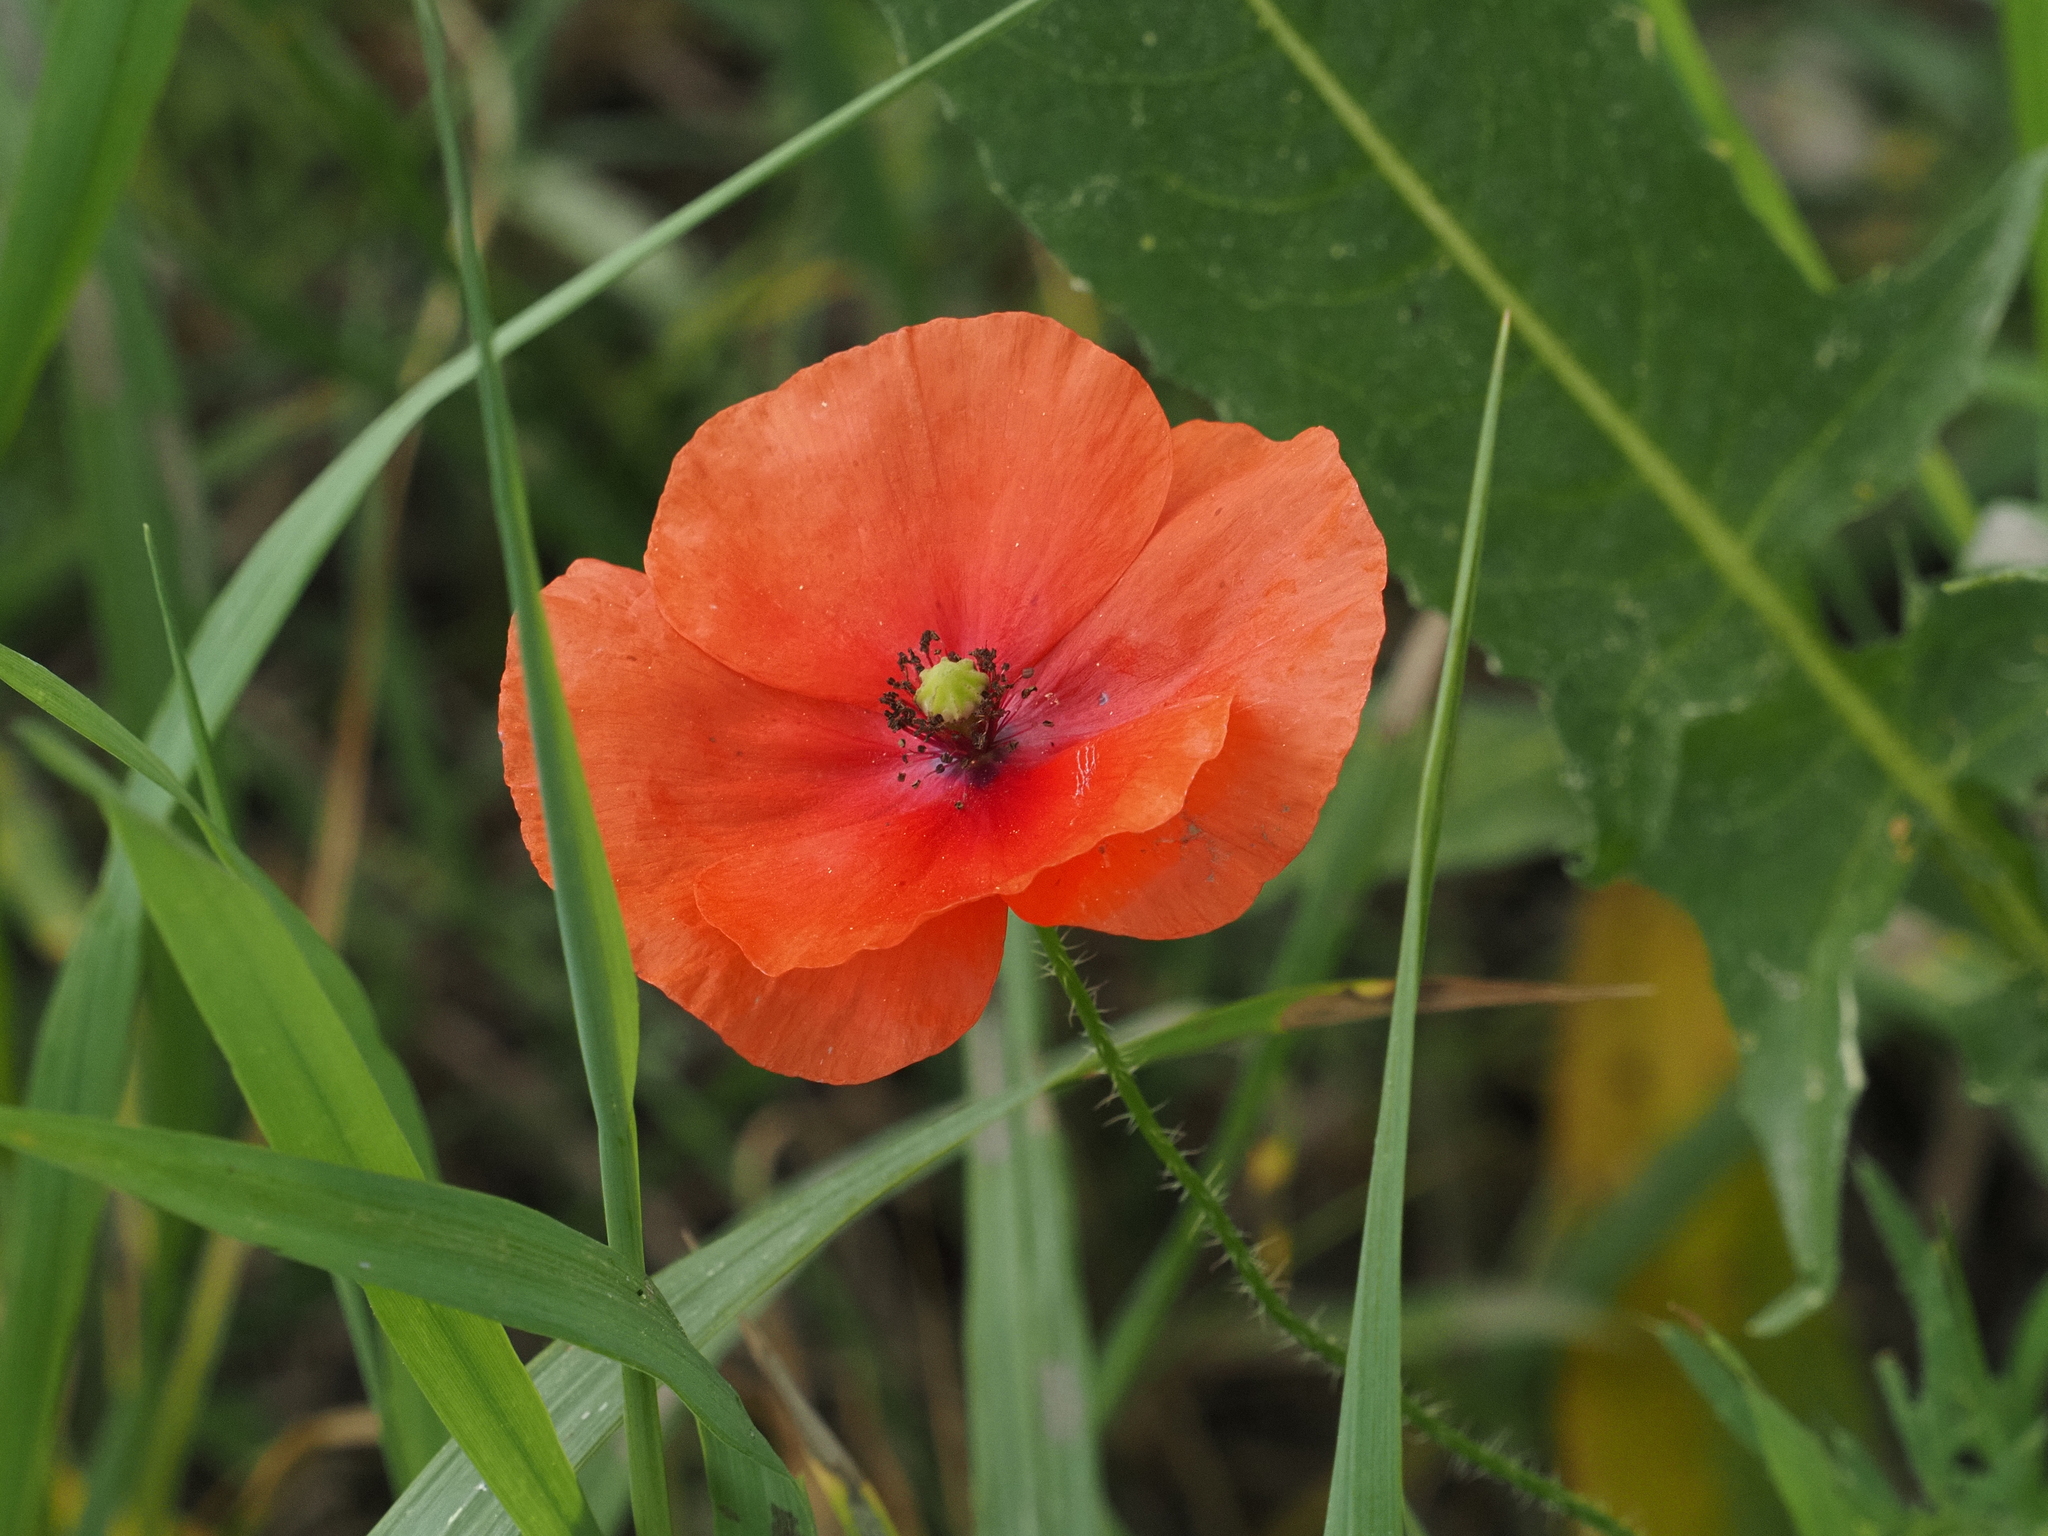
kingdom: Plantae
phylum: Tracheophyta
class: Magnoliopsida
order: Ranunculales
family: Papaveraceae
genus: Papaver
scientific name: Papaver rhoeas
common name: Corn poppy
